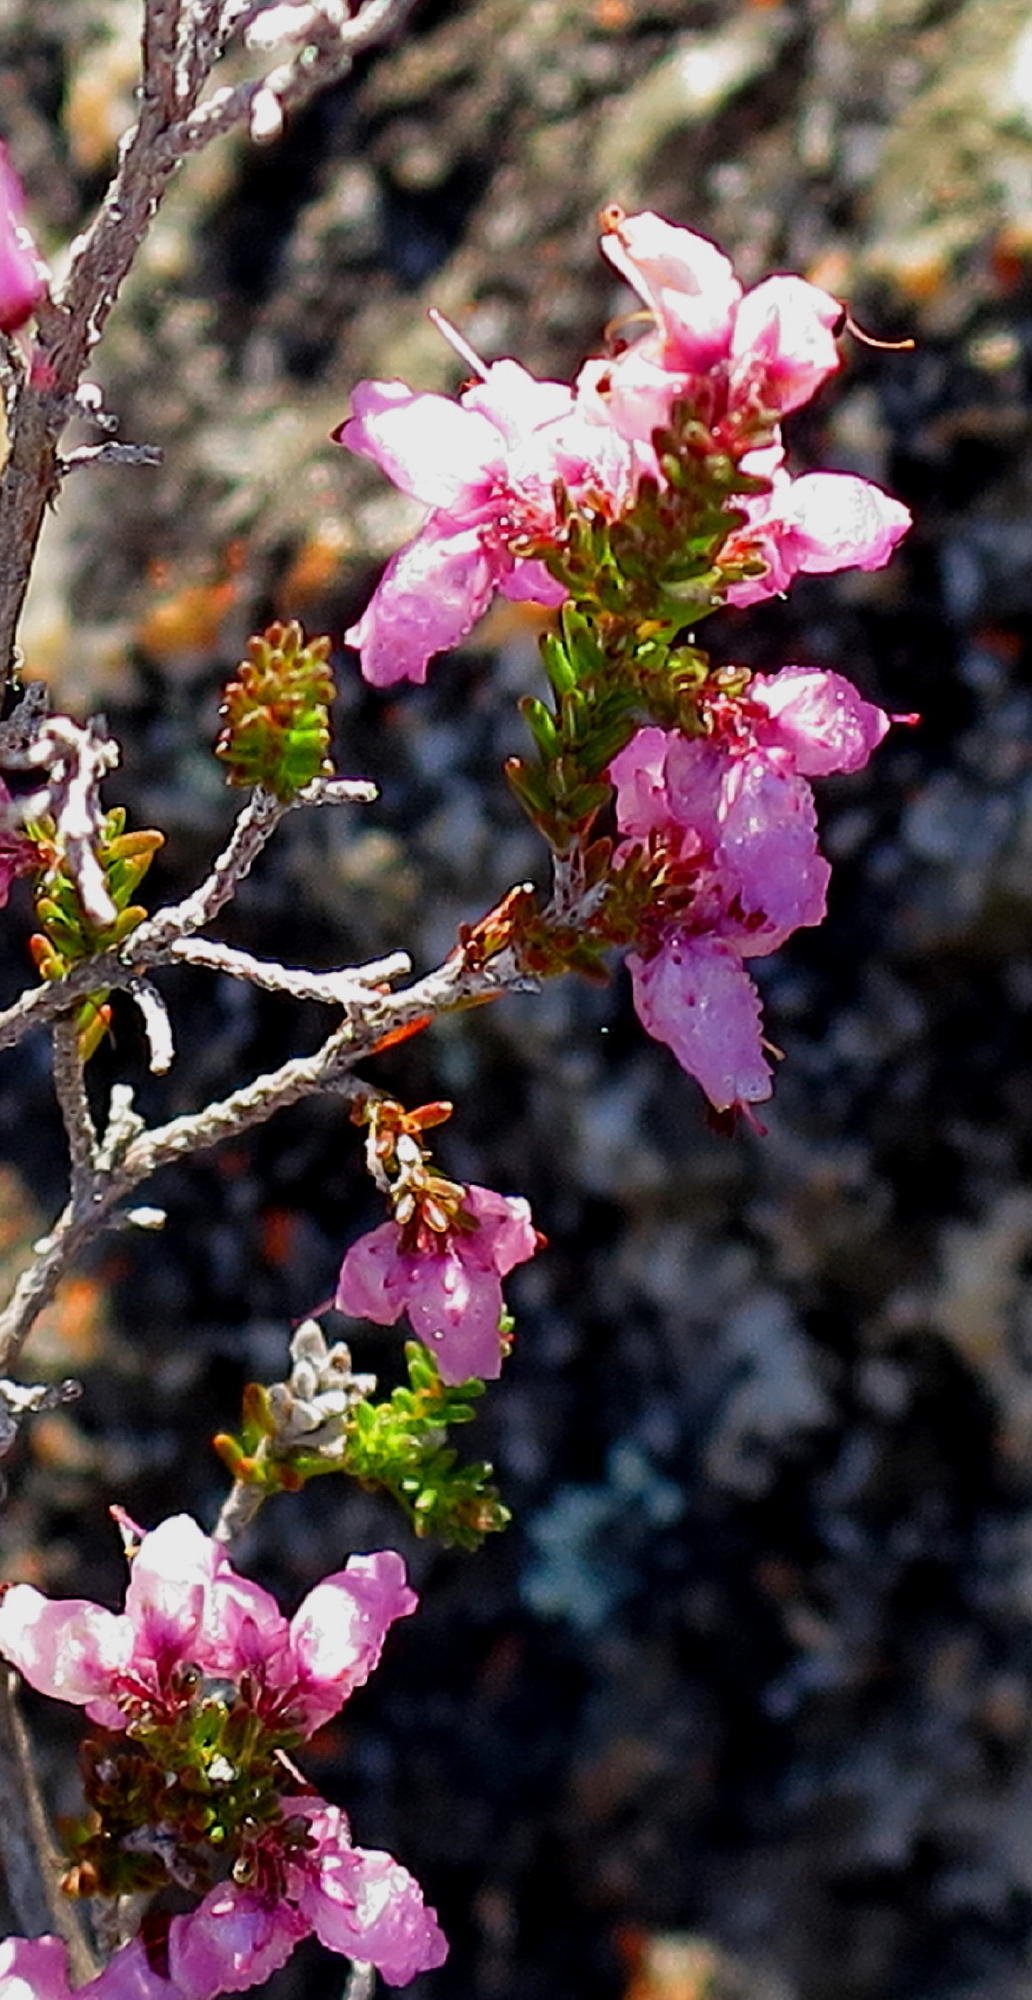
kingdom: Plantae
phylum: Tracheophyta
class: Magnoliopsida
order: Ericales
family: Ericaceae
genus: Erica
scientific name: Erica vlokii
